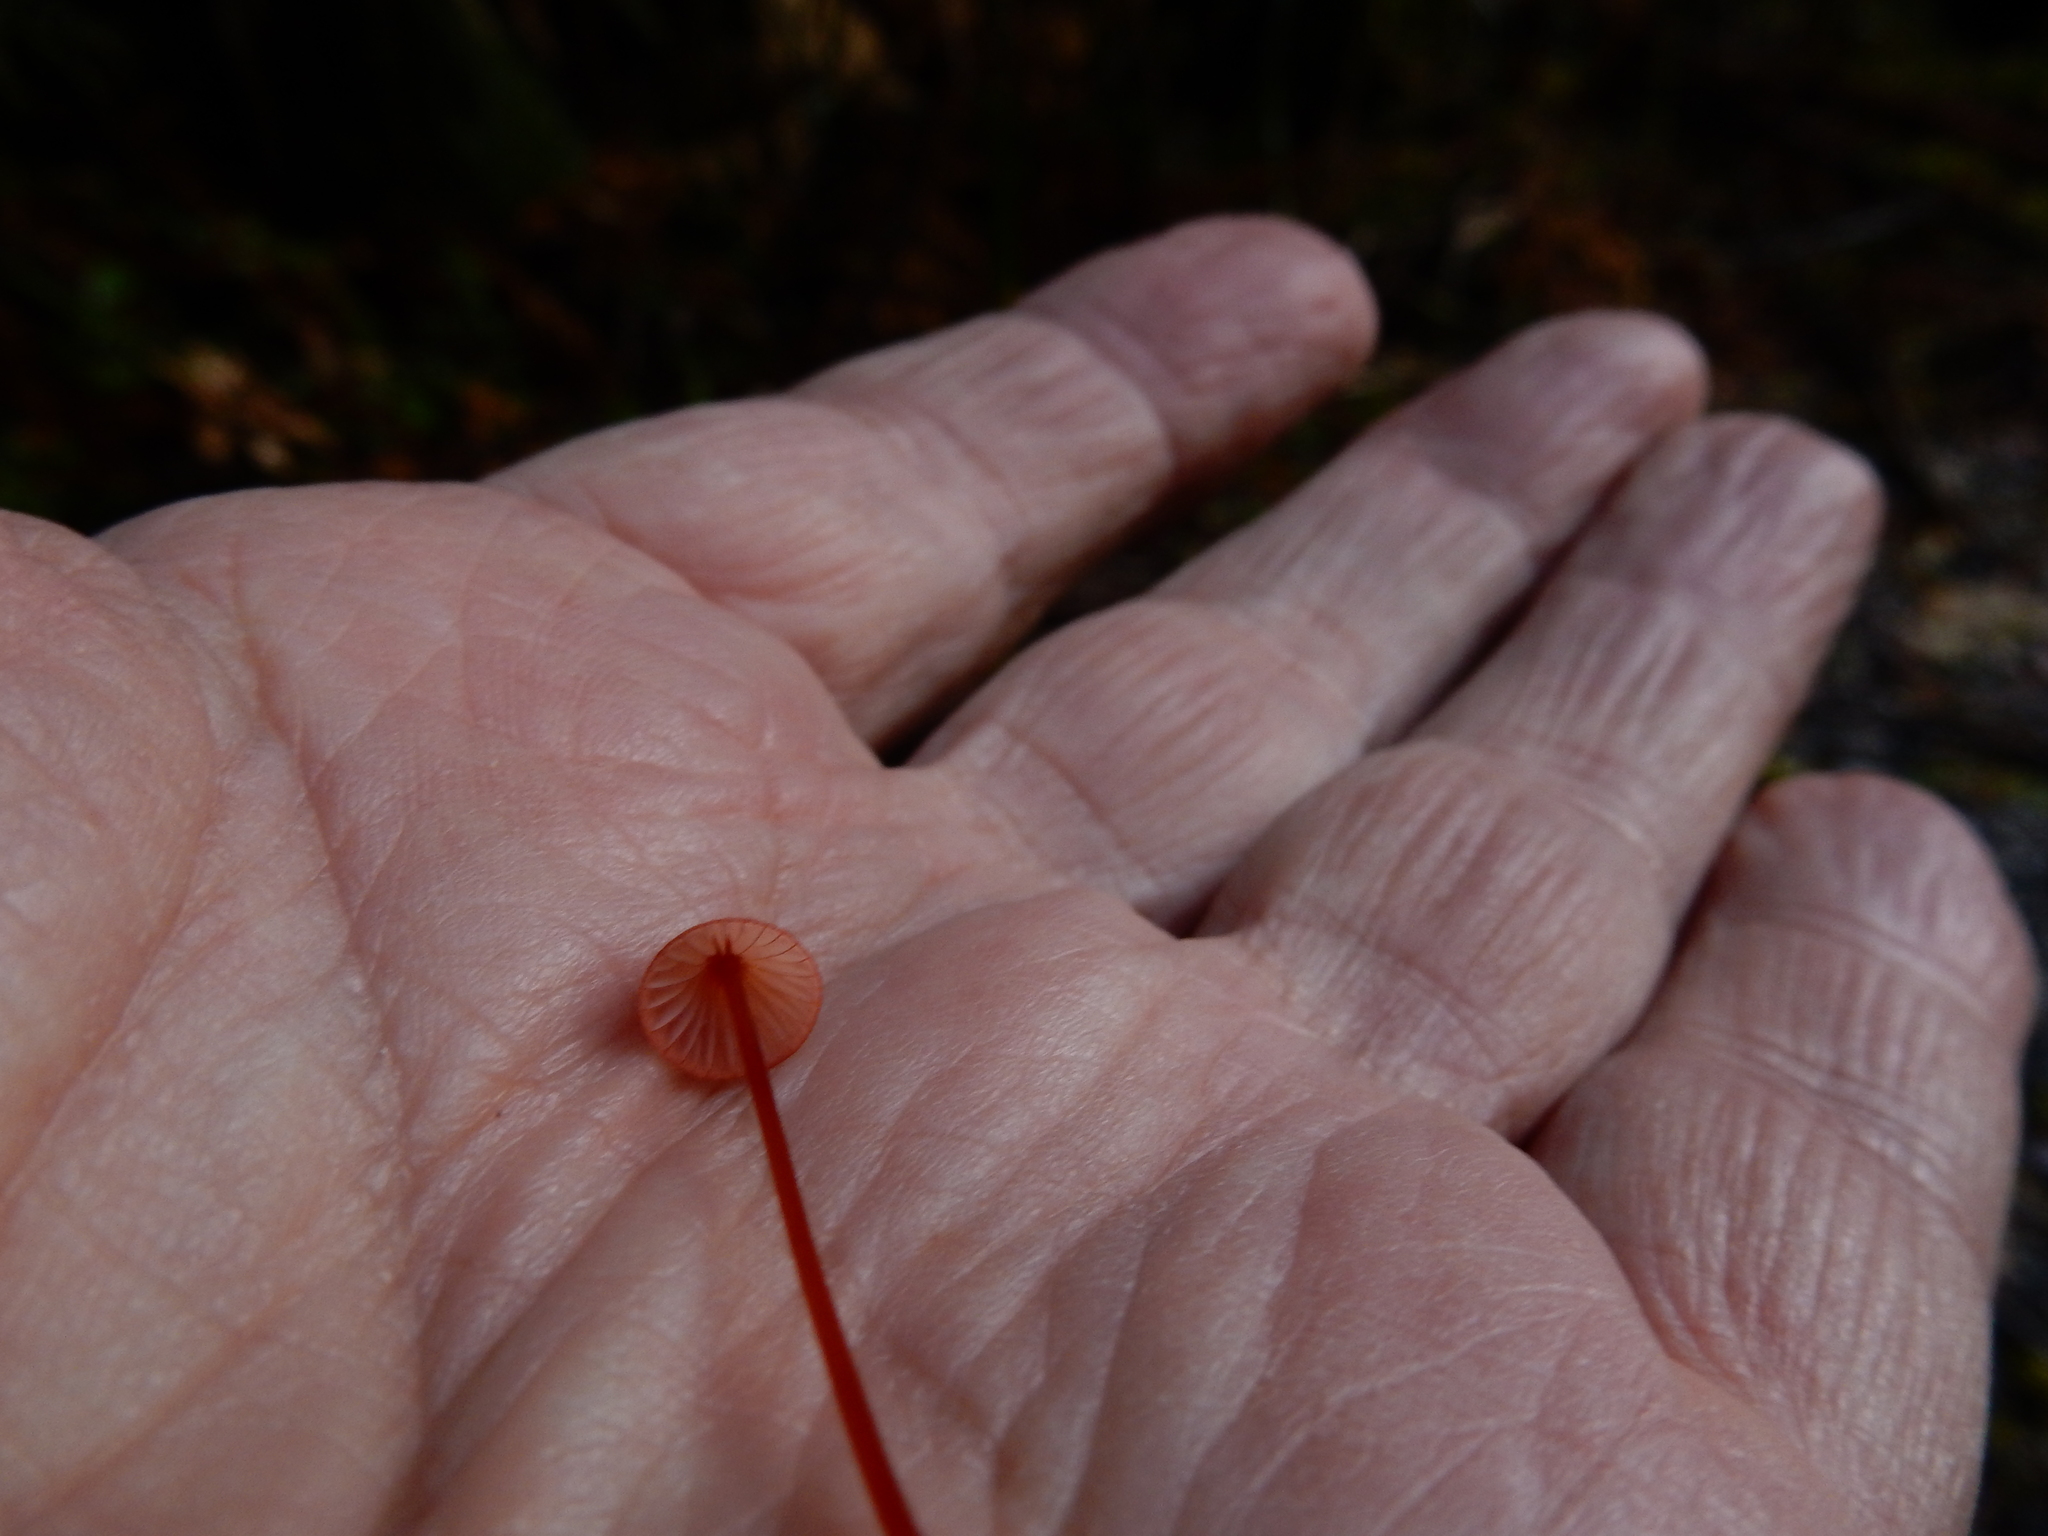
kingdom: Fungi
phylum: Basidiomycota
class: Agaricomycetes
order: Agaricales
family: Mycenaceae
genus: Mycena
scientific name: Mycena ura
